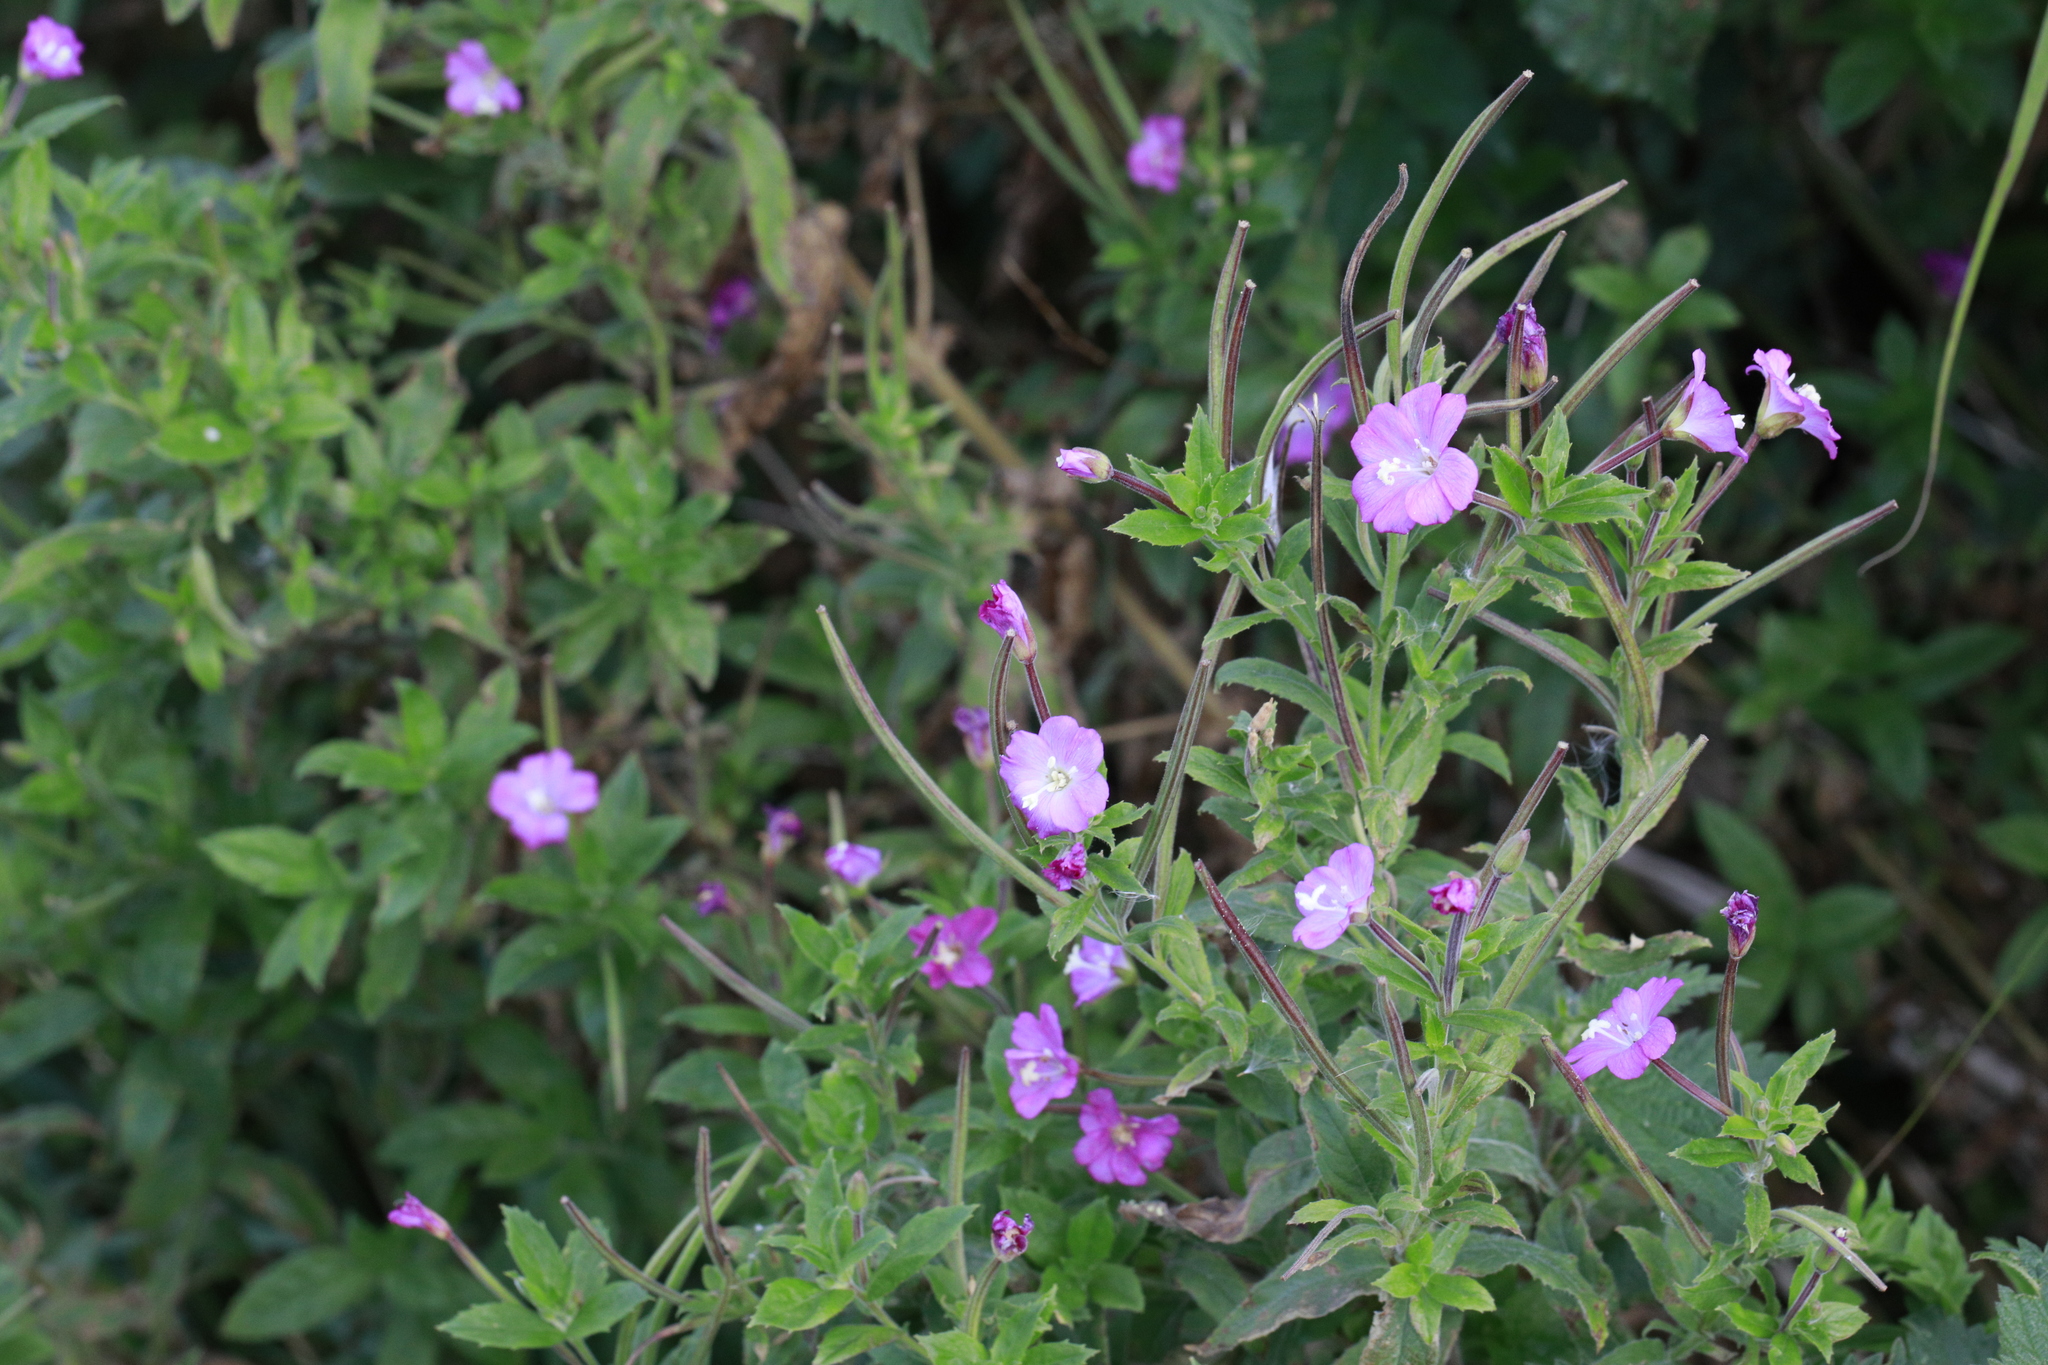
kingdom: Plantae
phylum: Tracheophyta
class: Magnoliopsida
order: Myrtales
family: Onagraceae
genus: Epilobium
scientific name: Epilobium hirsutum
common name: Great willowherb
